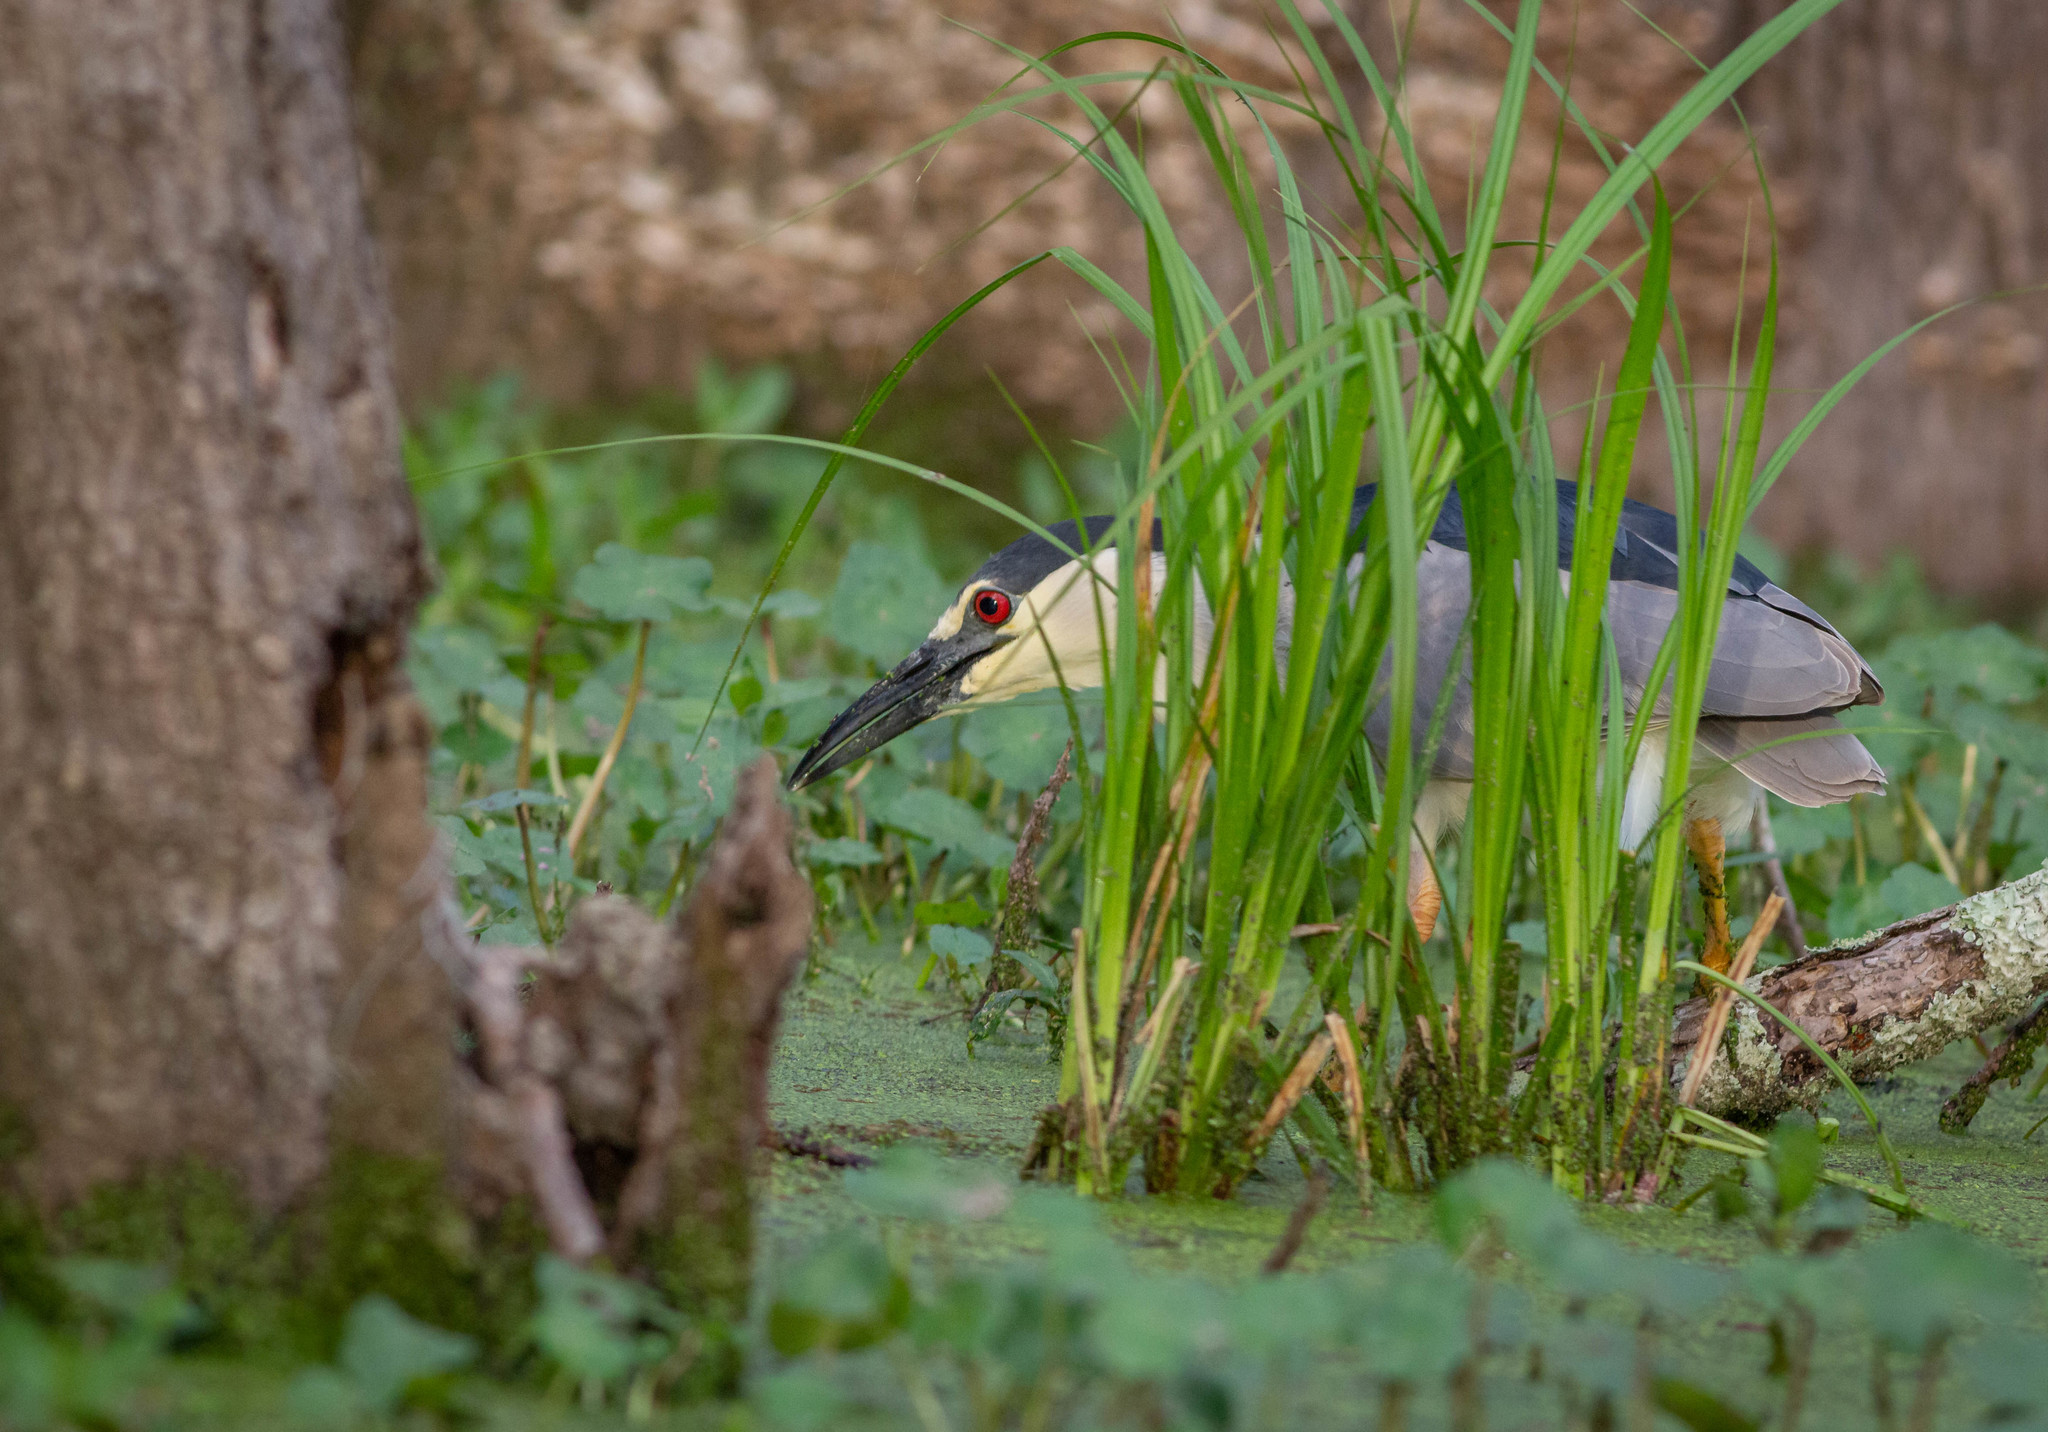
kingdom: Animalia
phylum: Chordata
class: Aves
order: Pelecaniformes
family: Ardeidae
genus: Nycticorax
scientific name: Nycticorax nycticorax
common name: Black-crowned night heron
